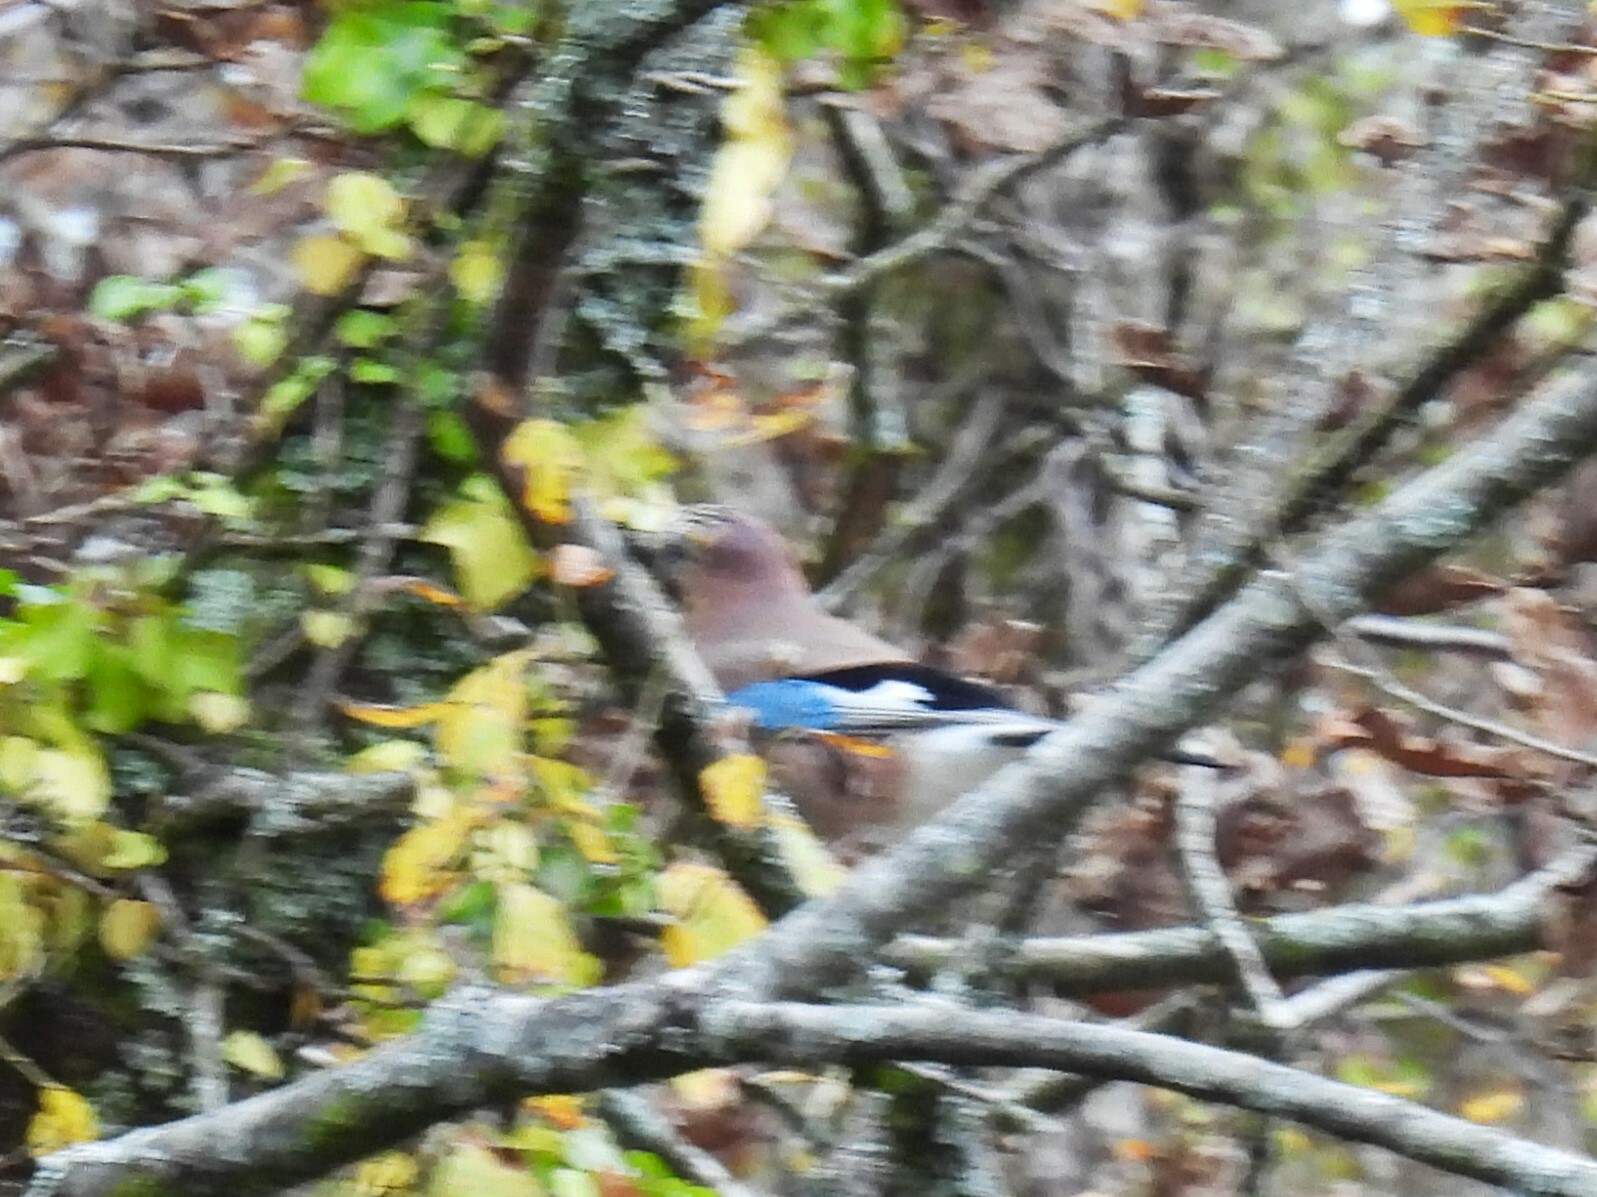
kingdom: Animalia
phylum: Chordata
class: Aves
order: Passeriformes
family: Corvidae
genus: Garrulus
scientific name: Garrulus glandarius
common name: Eurasian jay
